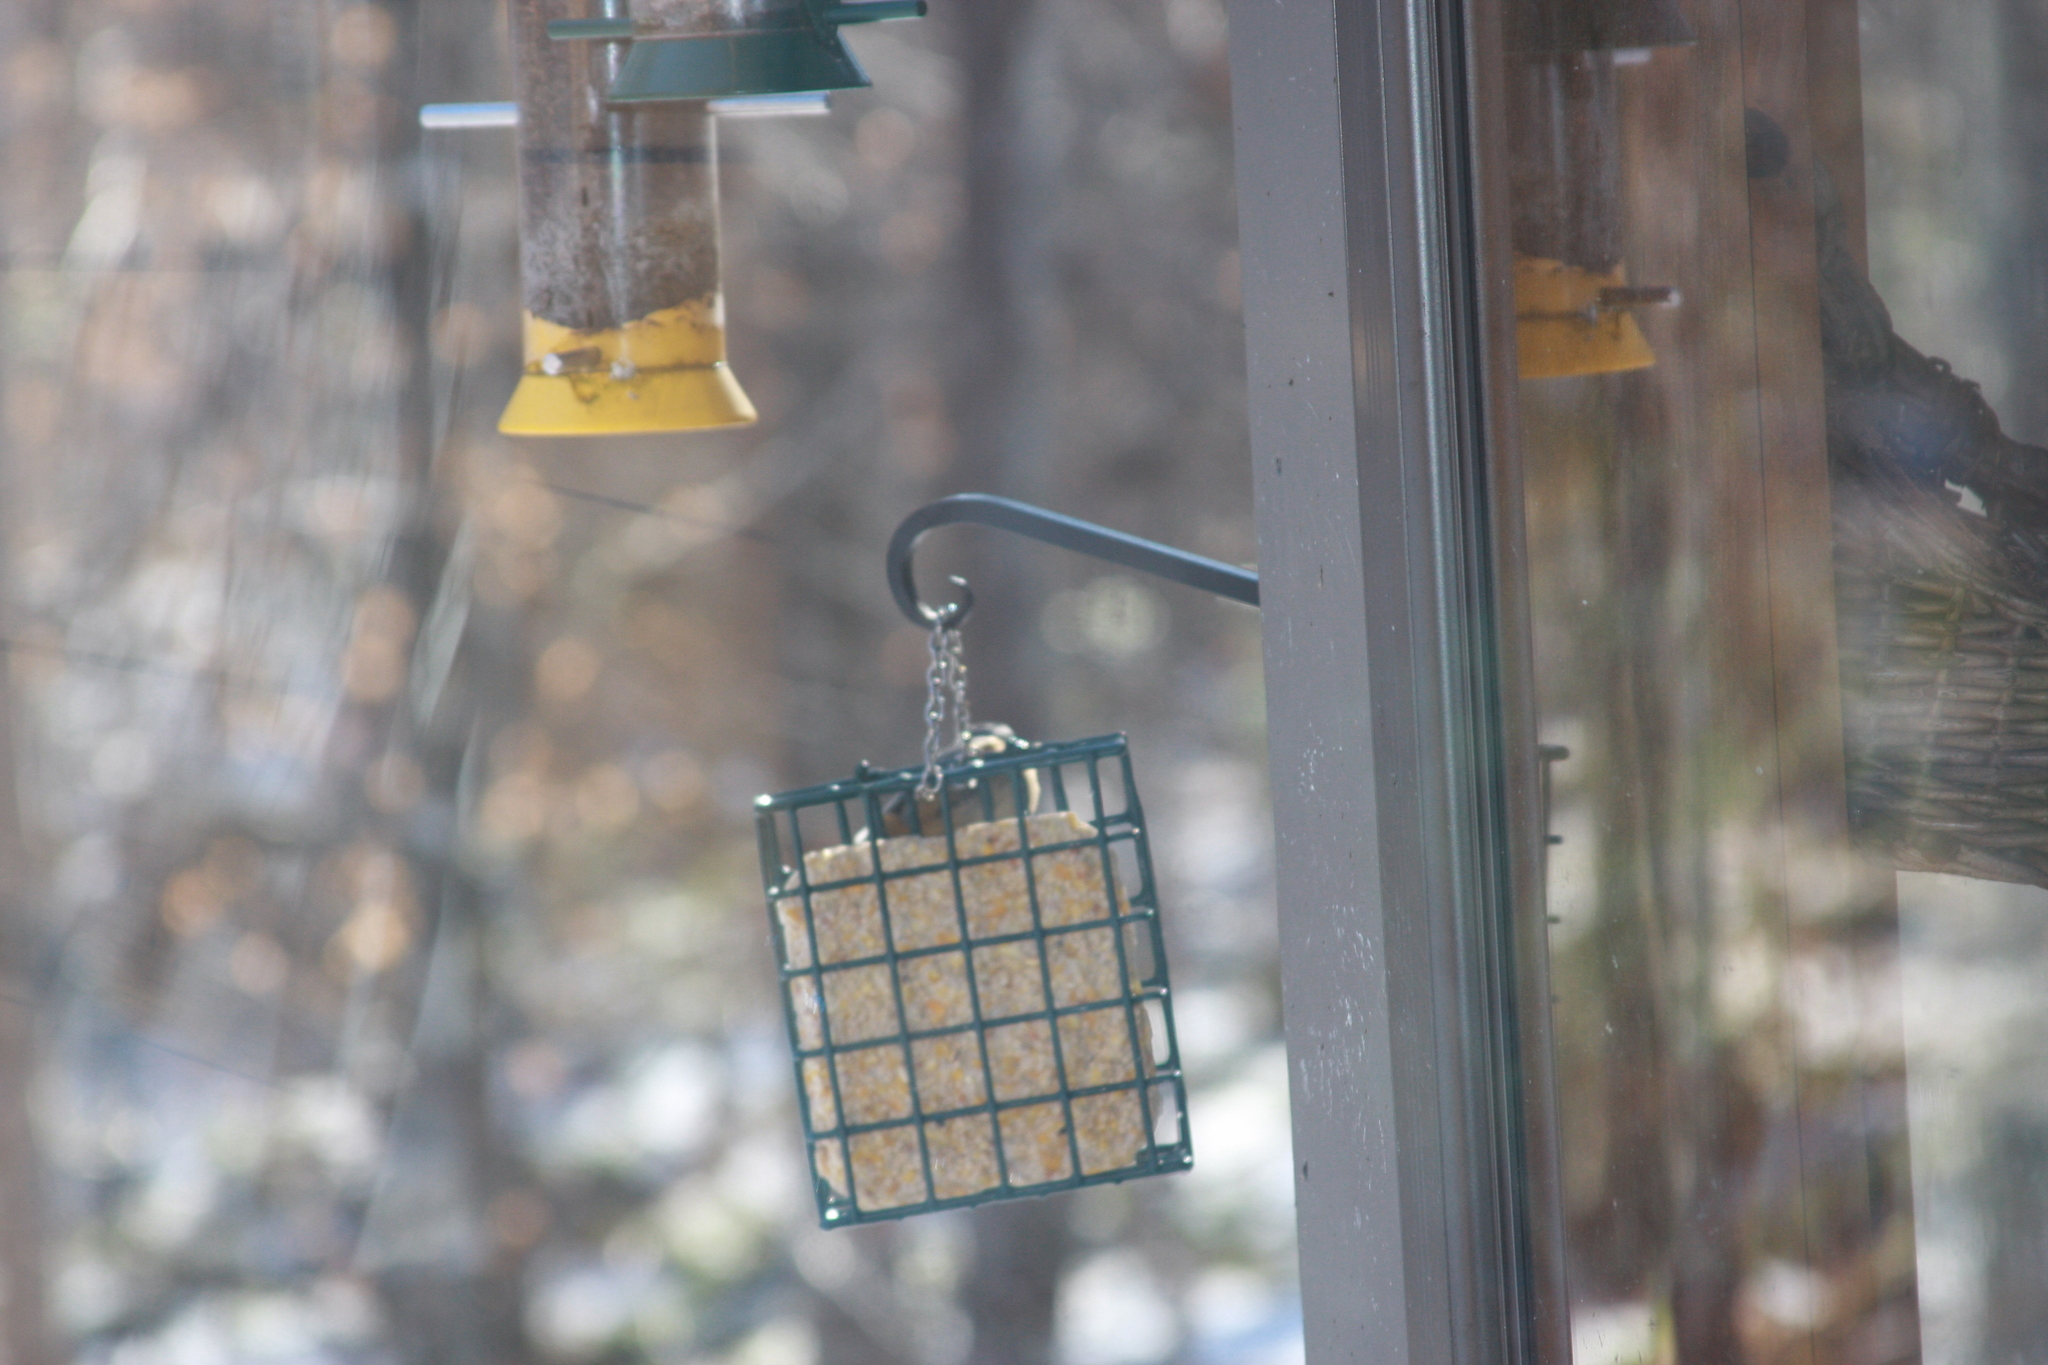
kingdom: Animalia
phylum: Chordata
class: Aves
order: Passeriformes
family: Sittidae
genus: Sitta
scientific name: Sitta canadensis
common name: Red-breasted nuthatch
